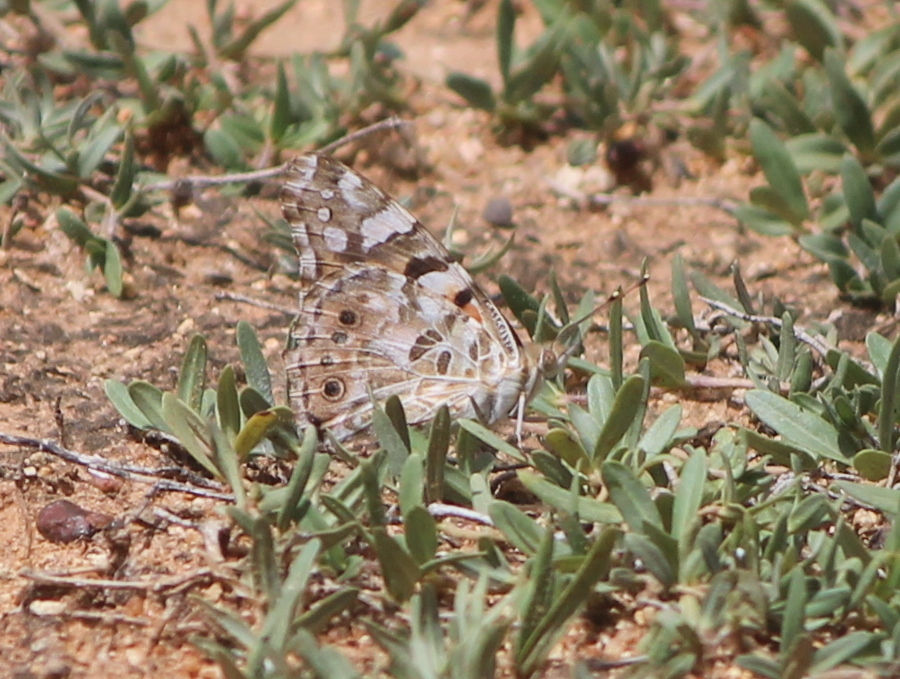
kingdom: Animalia
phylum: Arthropoda
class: Insecta
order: Lepidoptera
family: Nymphalidae
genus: Vanessa
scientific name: Vanessa cardui
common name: Painted lady
